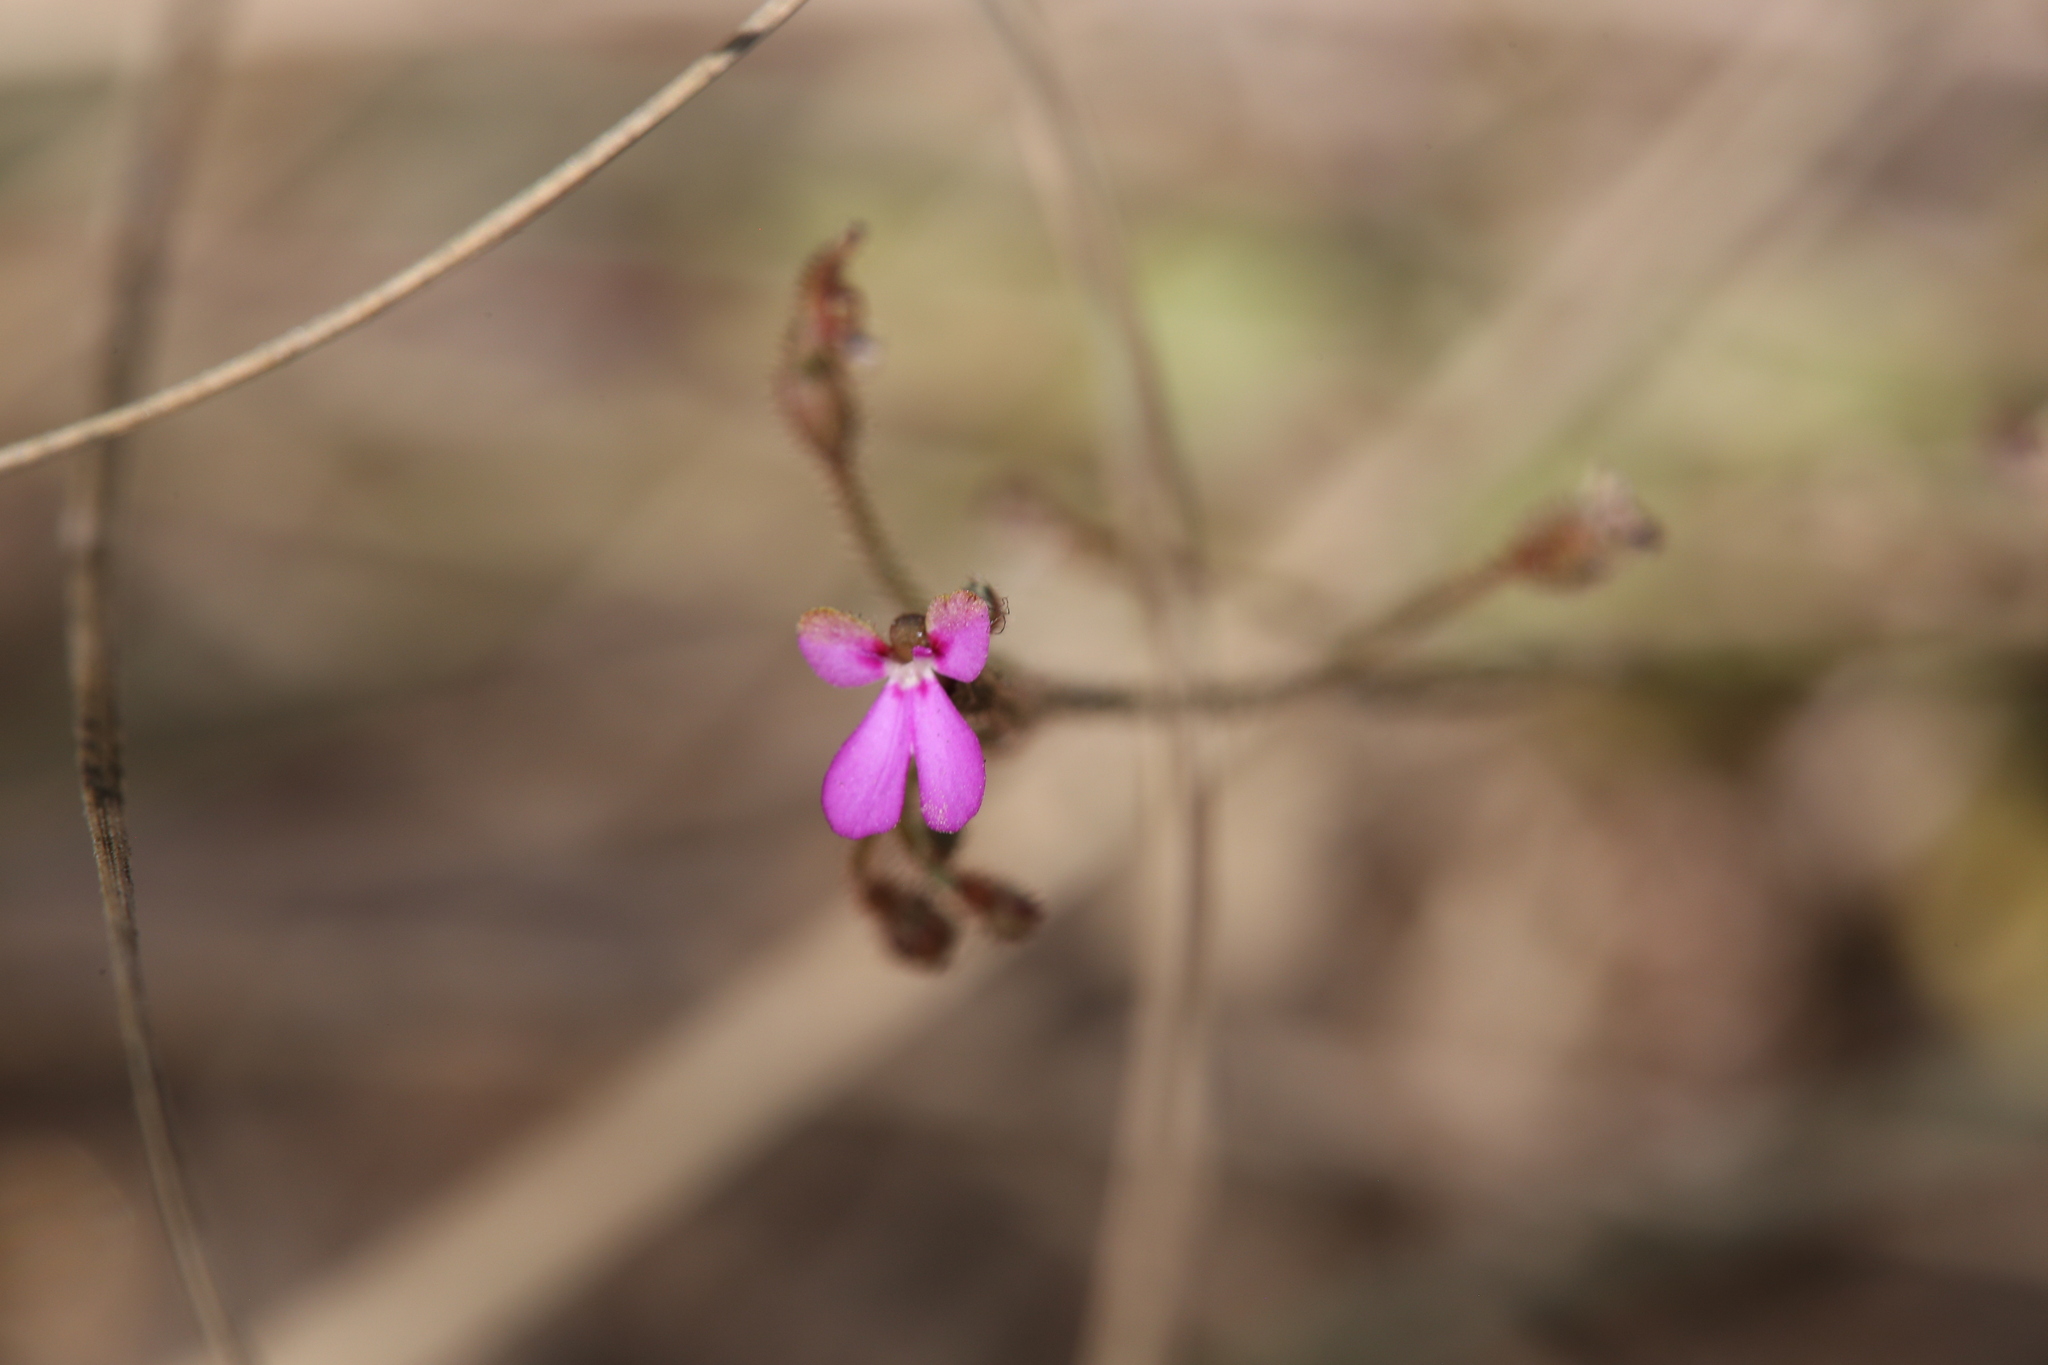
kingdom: Plantae
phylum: Tracheophyta
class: Magnoliopsida
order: Asterales
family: Stylidiaceae
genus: Stylidium
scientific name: Stylidium pindanicum
